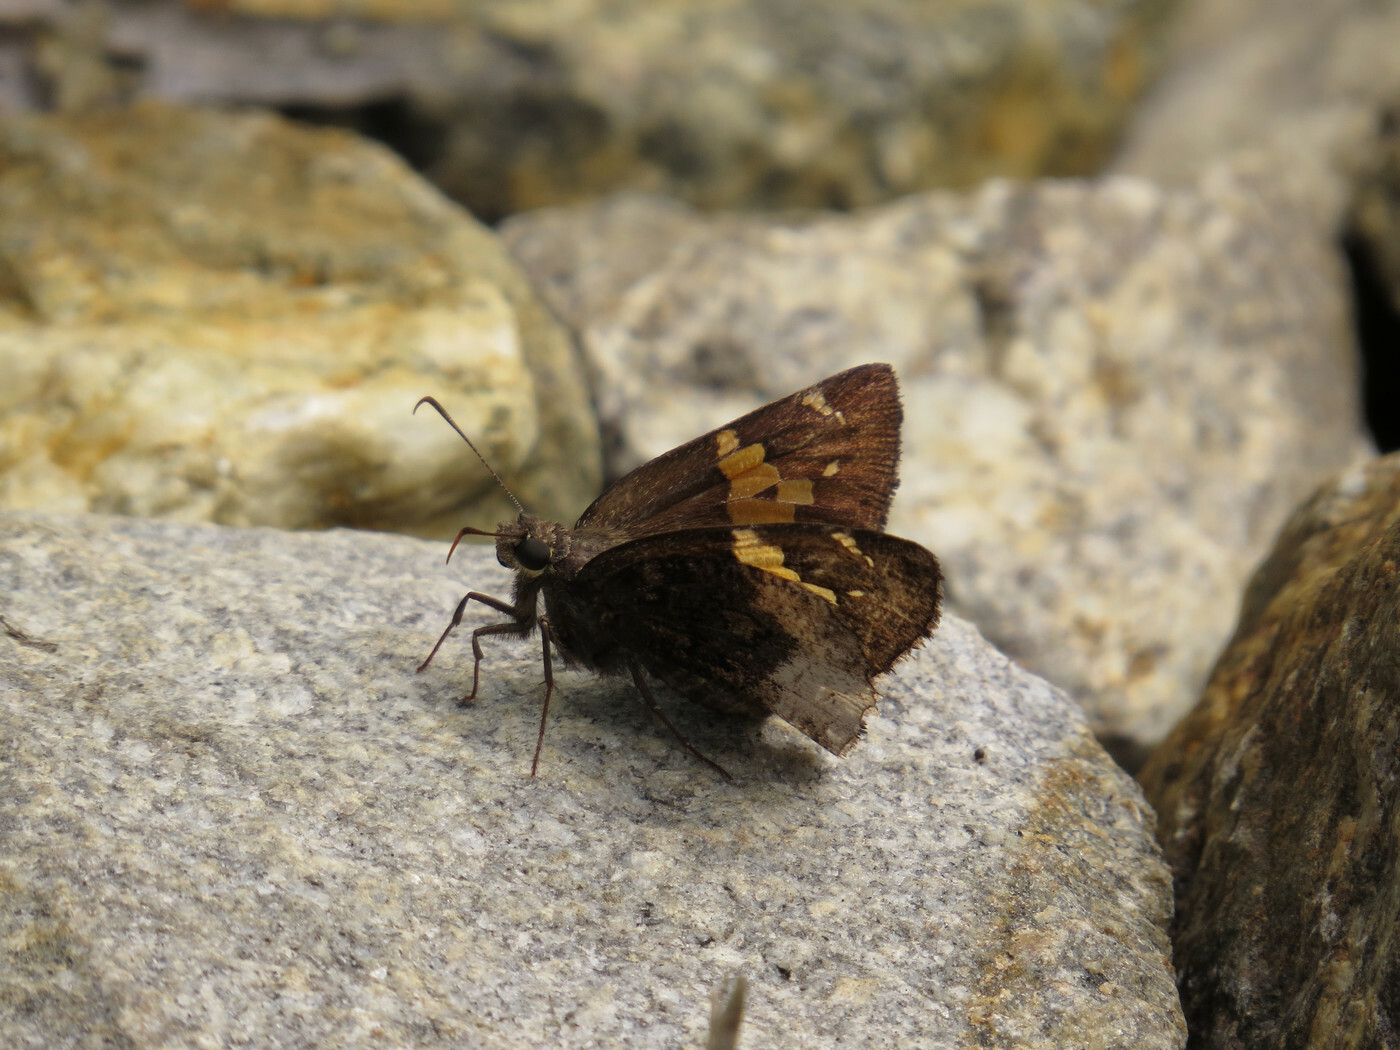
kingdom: Animalia
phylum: Arthropoda
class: Insecta
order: Lepidoptera
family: Hesperiidae
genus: Thorybes
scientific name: Thorybes lyciades
